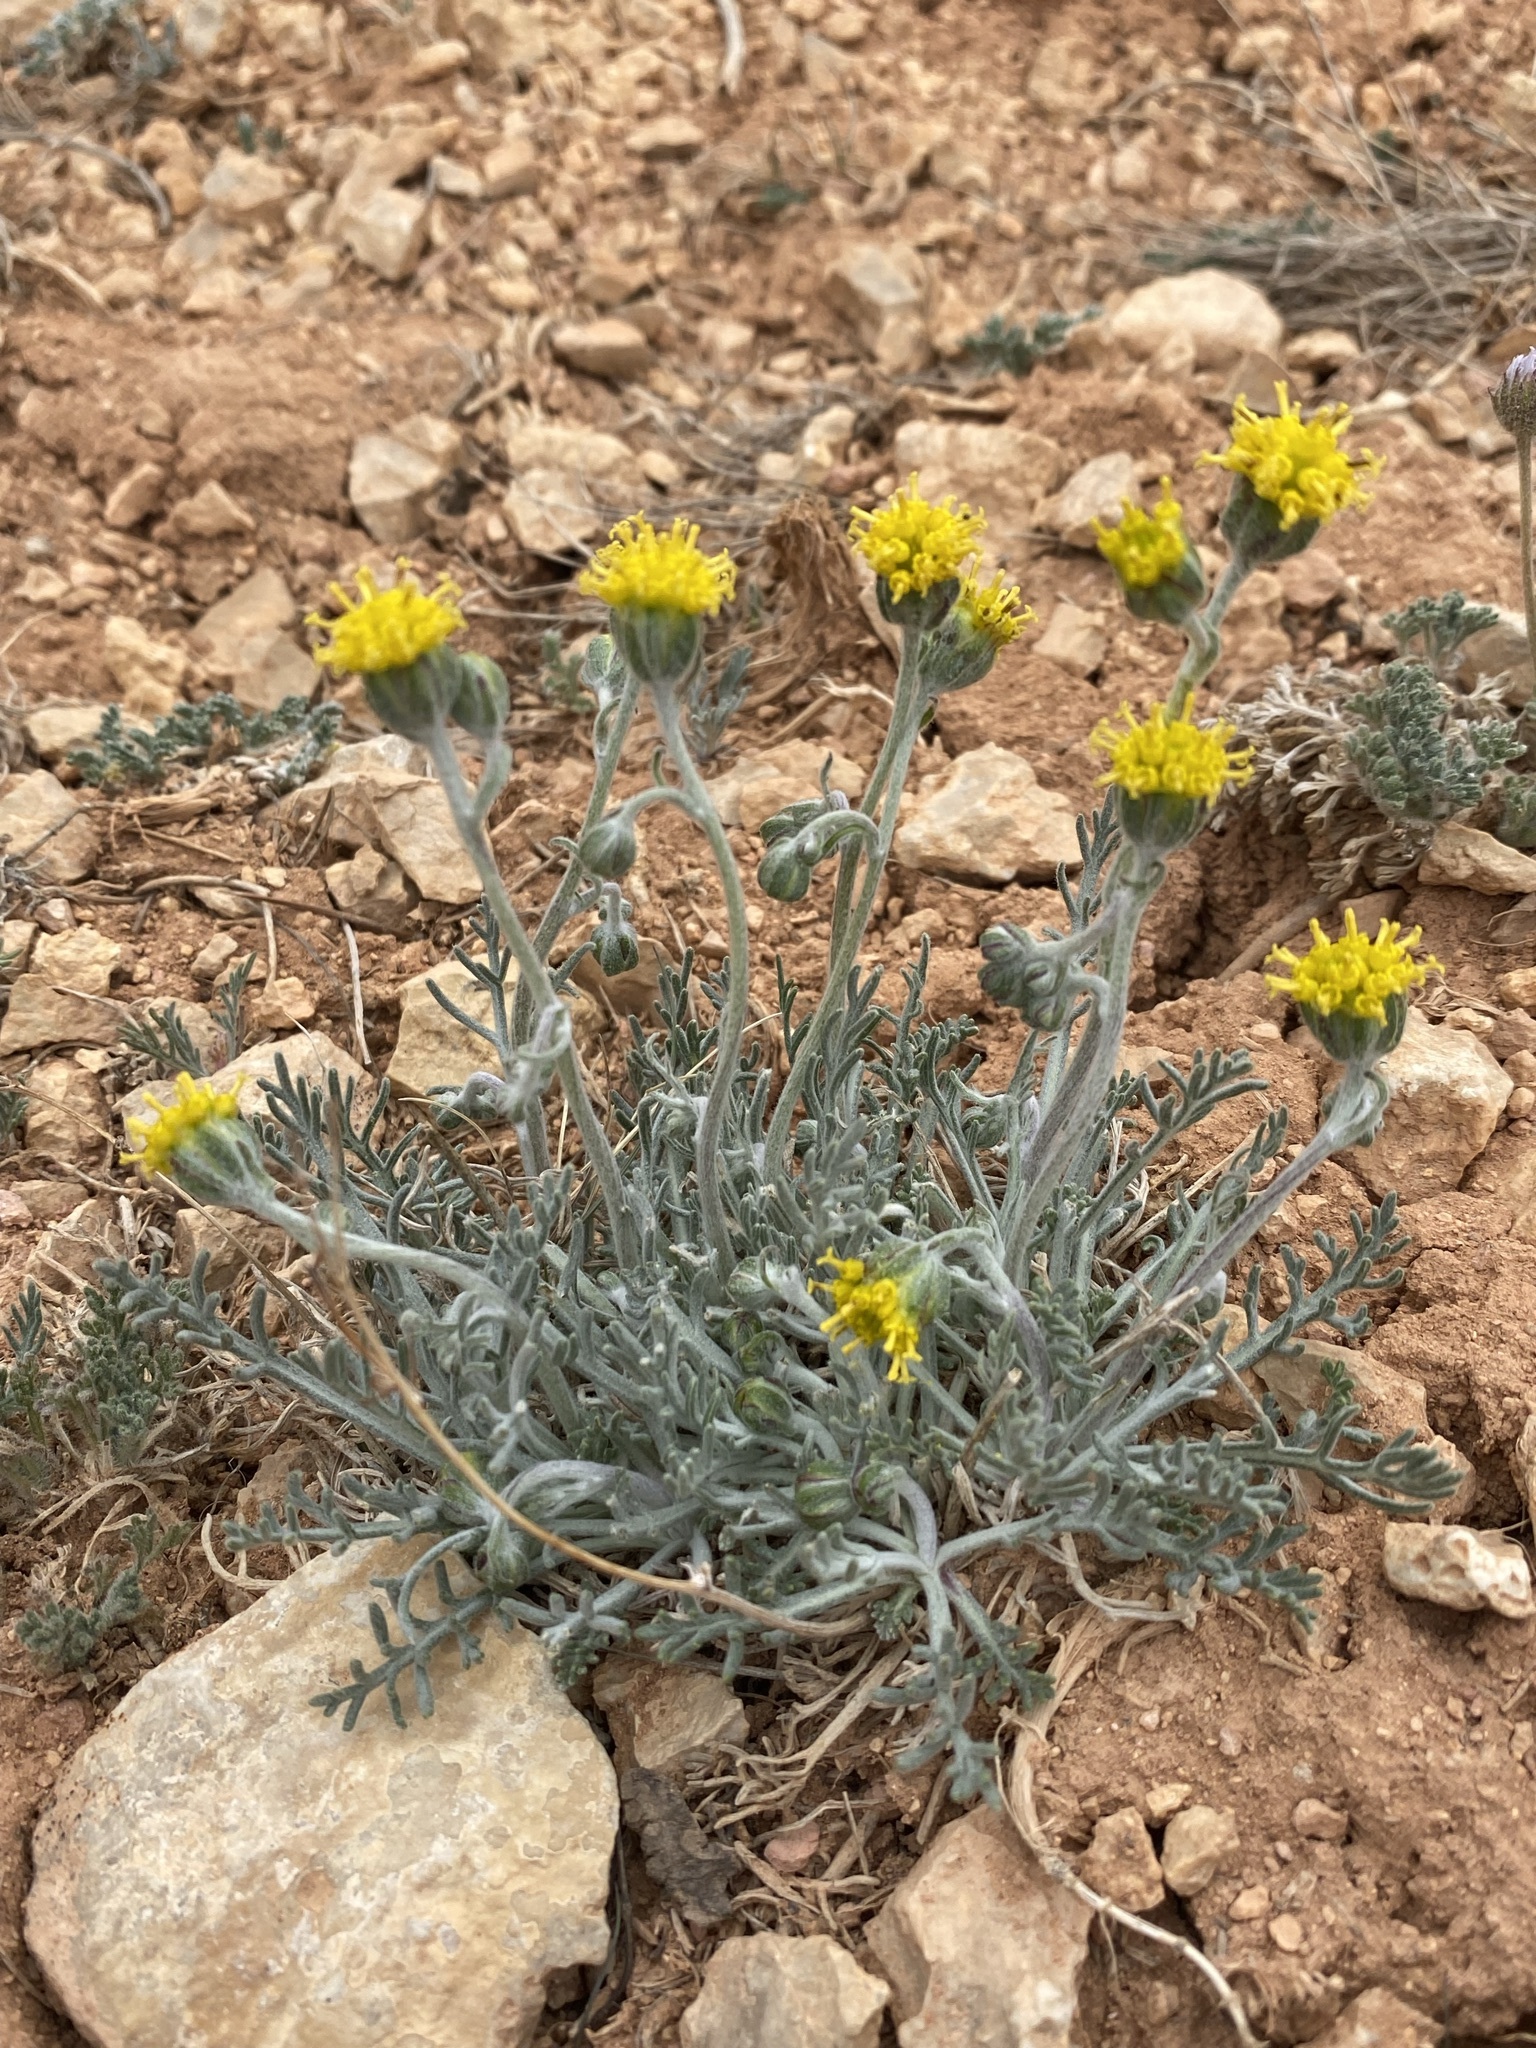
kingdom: Plantae
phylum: Tracheophyta
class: Magnoliopsida
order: Asterales
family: Asteraceae
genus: Hymenopappus
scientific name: Hymenopappus filifolius
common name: Columbia cutleaf
